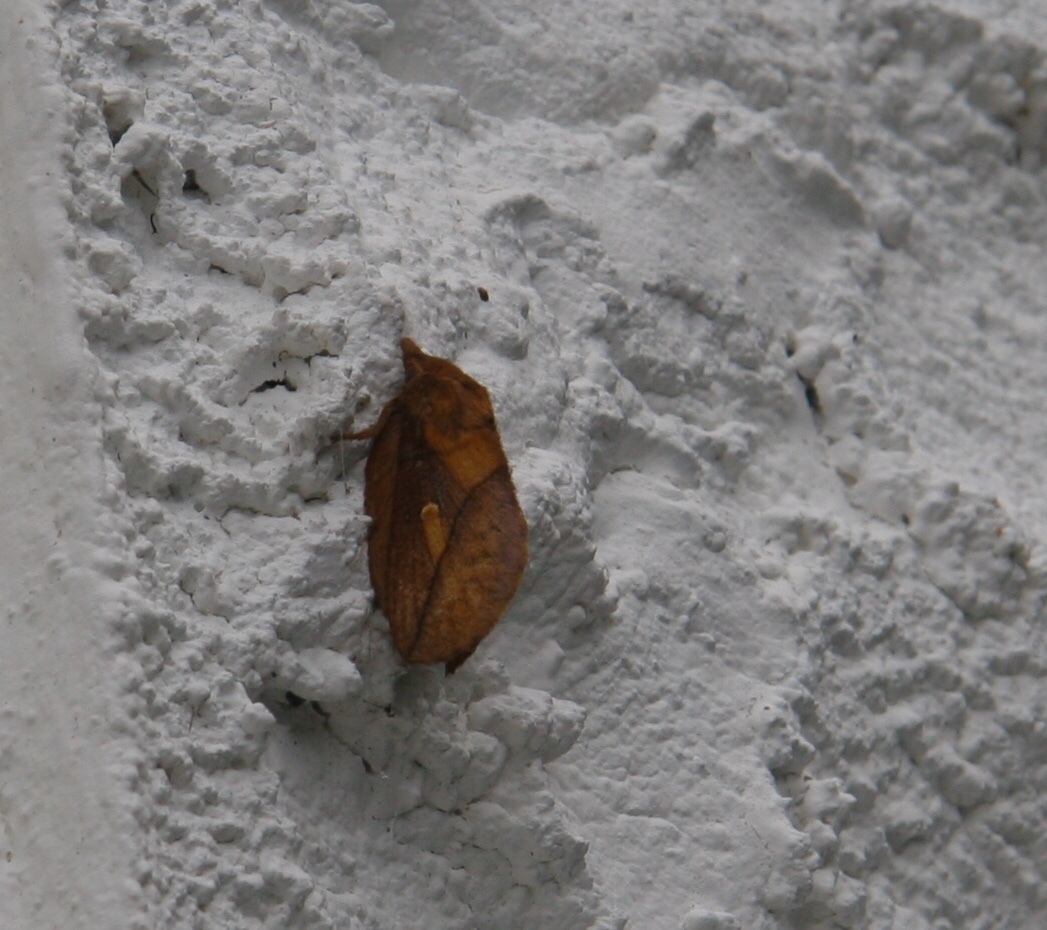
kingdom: Animalia
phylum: Arthropoda
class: Insecta
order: Lepidoptera
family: Lasiocampidae
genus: Euthrix
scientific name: Euthrix potatoria
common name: Drinker
